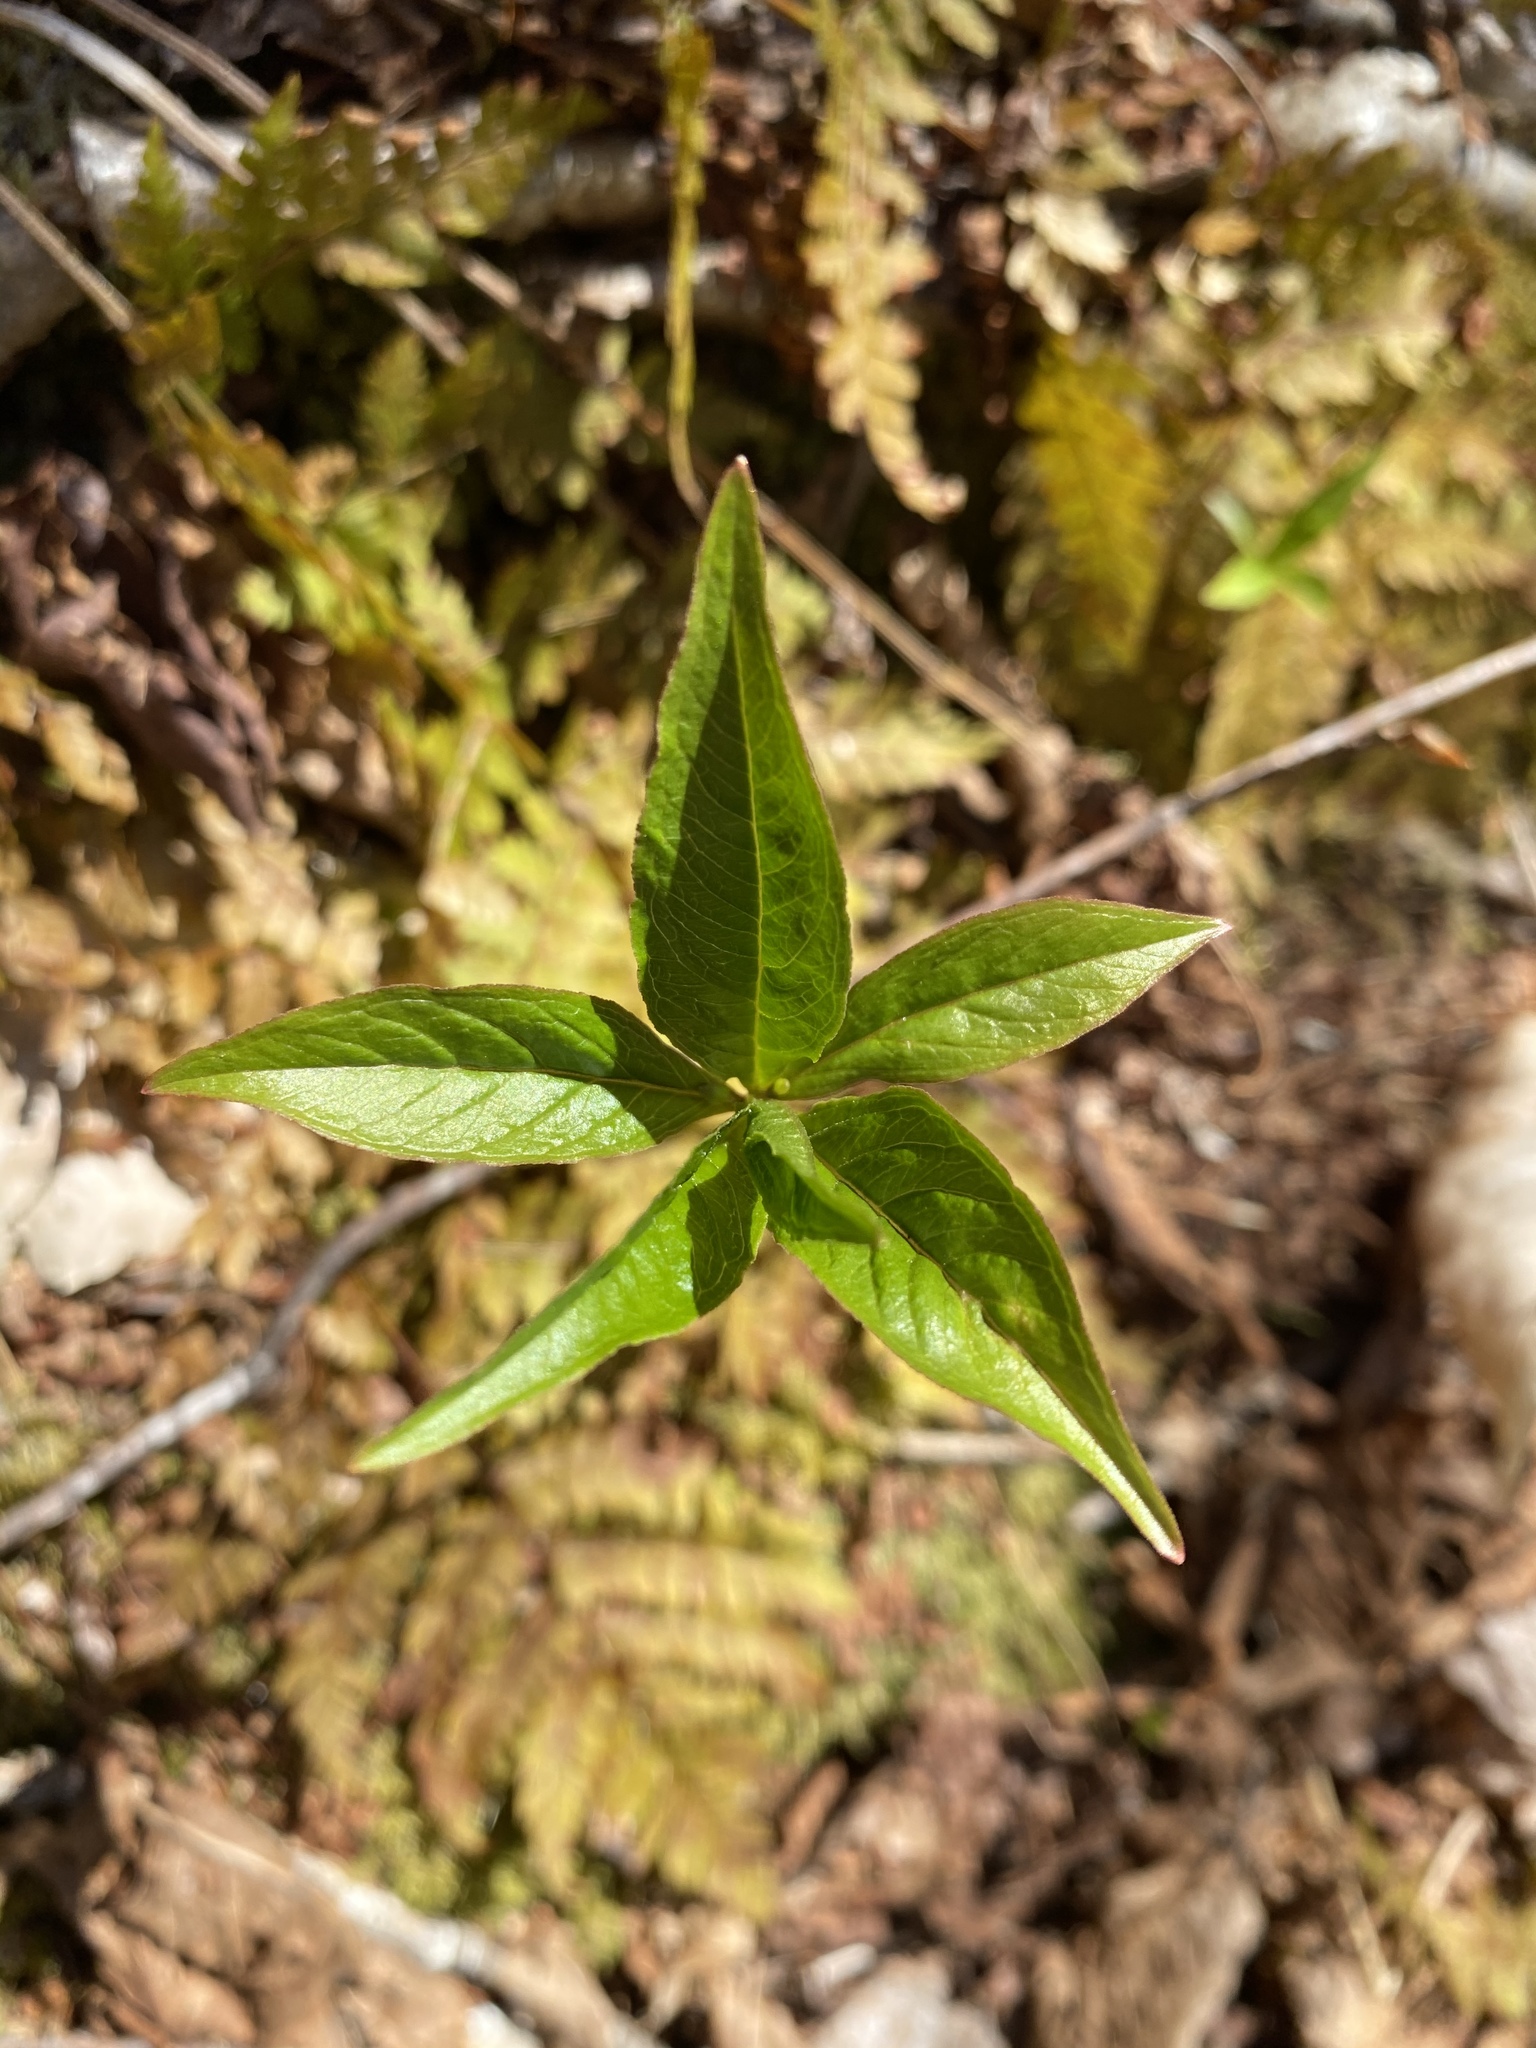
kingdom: Plantae
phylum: Tracheophyta
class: Magnoliopsida
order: Ericales
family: Primulaceae
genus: Lysimachia
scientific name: Lysimachia borealis
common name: American starflower
